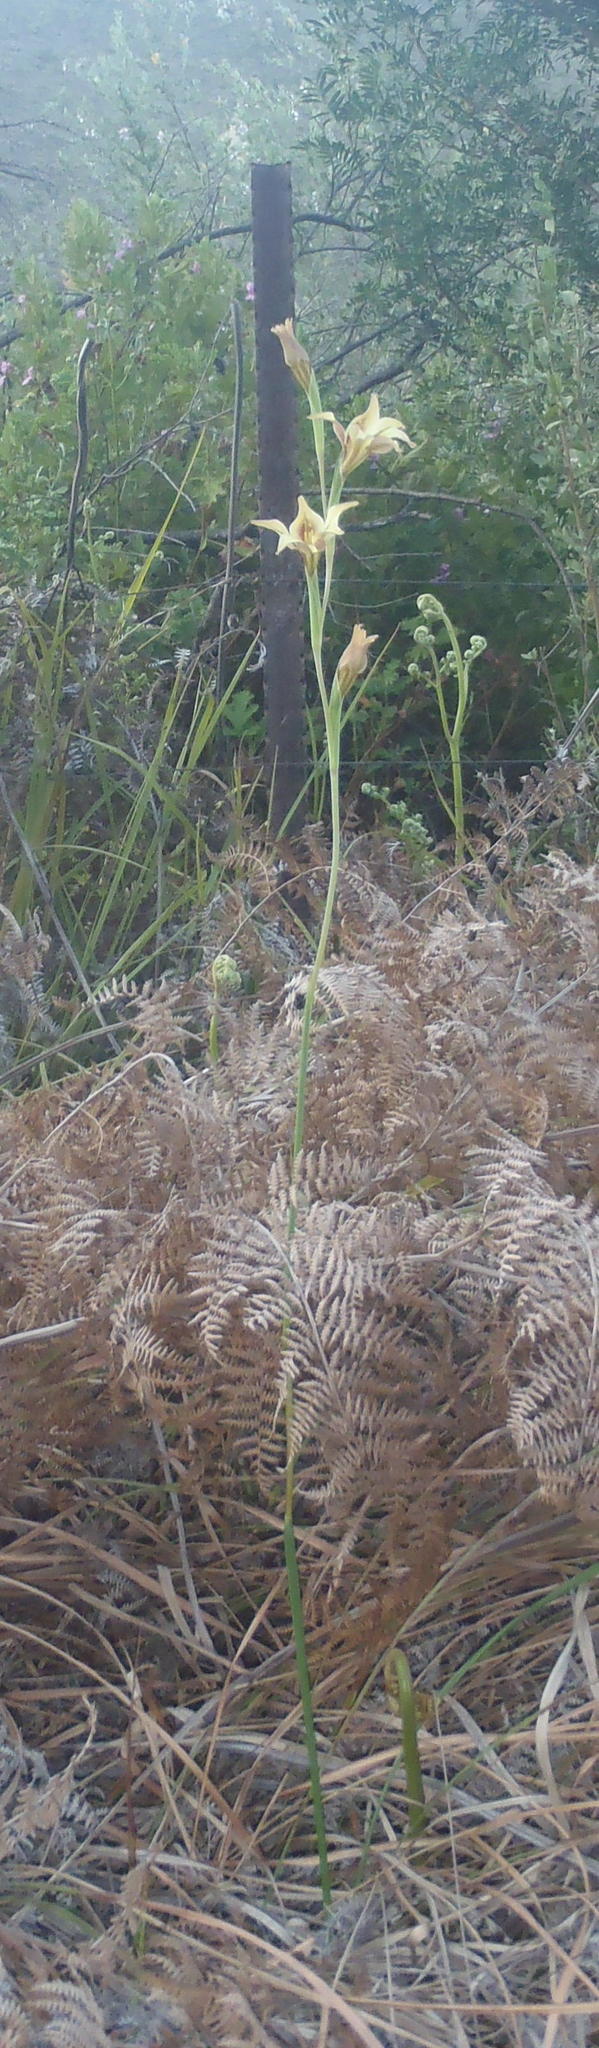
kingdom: Plantae
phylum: Tracheophyta
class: Liliopsida
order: Asparagales
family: Iridaceae
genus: Gladiolus
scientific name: Gladiolus tristis
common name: Ever-flowering gladiolus
